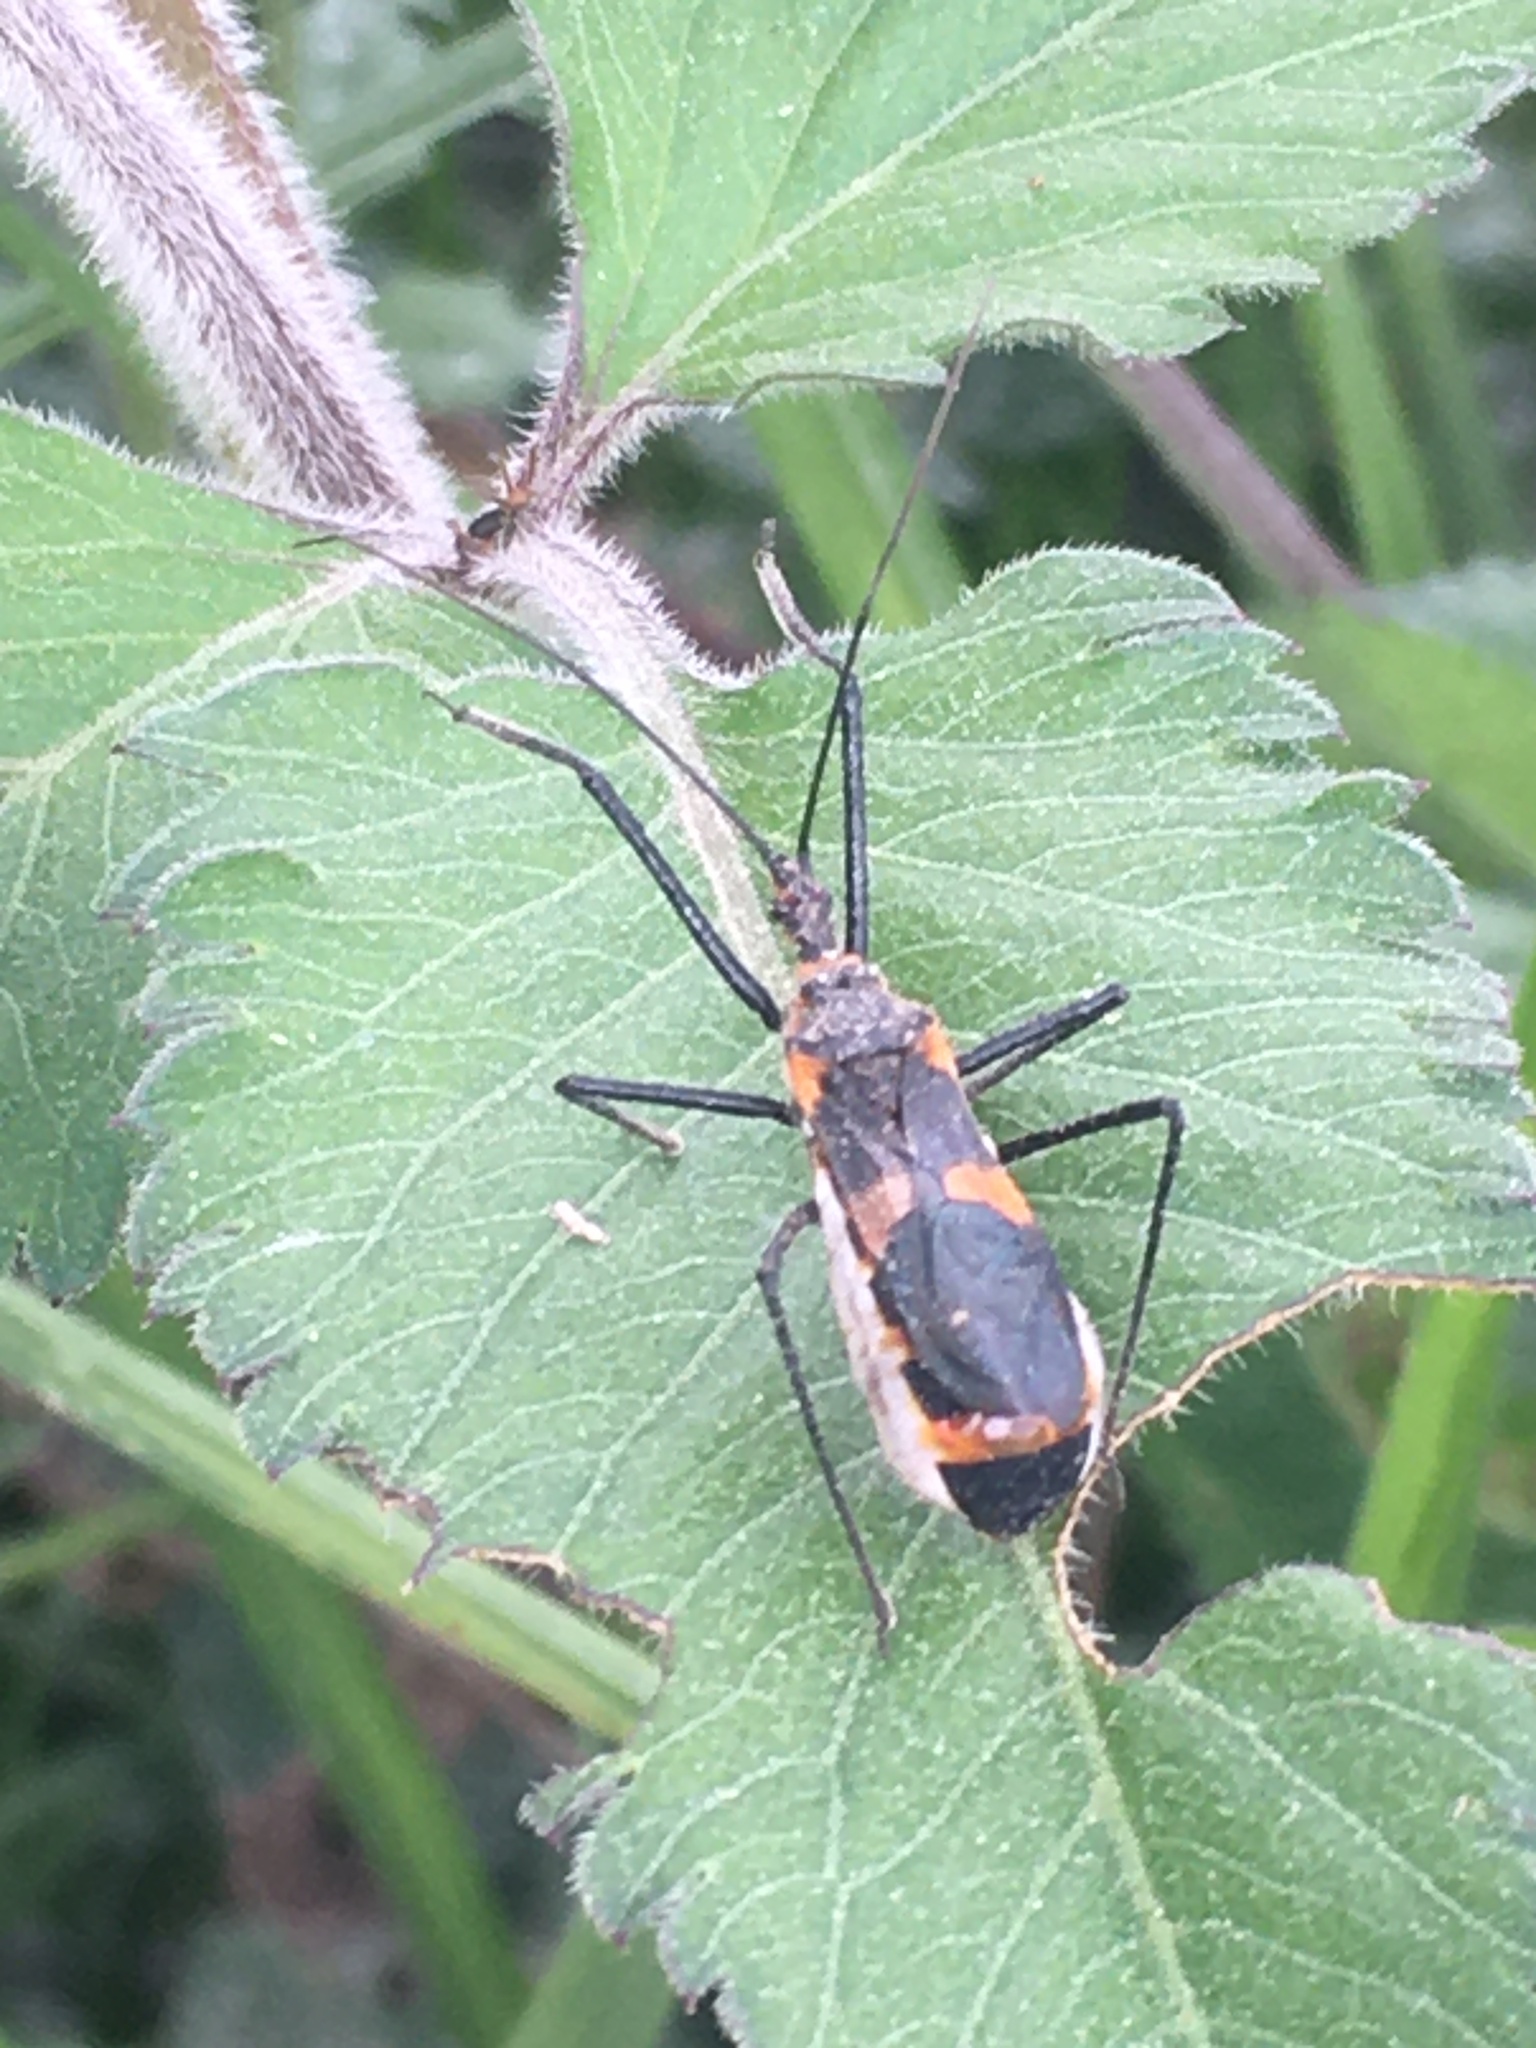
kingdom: Animalia
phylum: Arthropoda
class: Insecta
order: Hemiptera
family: Reduviidae
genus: Zelus
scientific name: Zelus longipes
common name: Milkweed assassin bug
